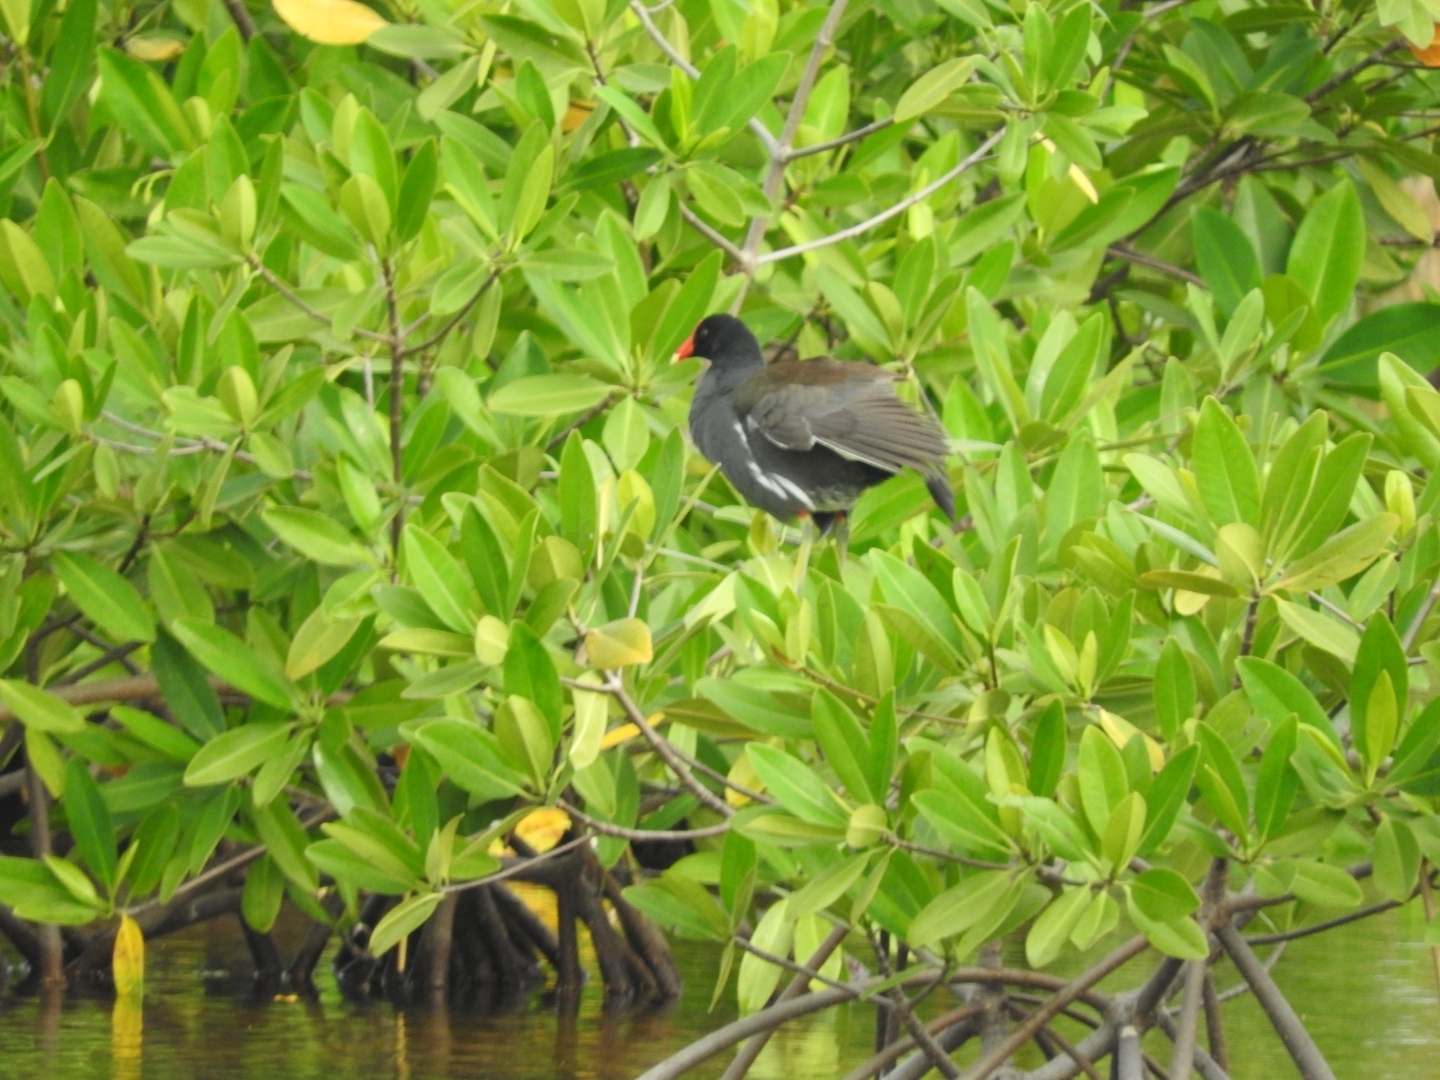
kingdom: Animalia
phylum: Chordata
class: Aves
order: Gruiformes
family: Rallidae
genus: Gallinula
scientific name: Gallinula chloropus
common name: Common moorhen
